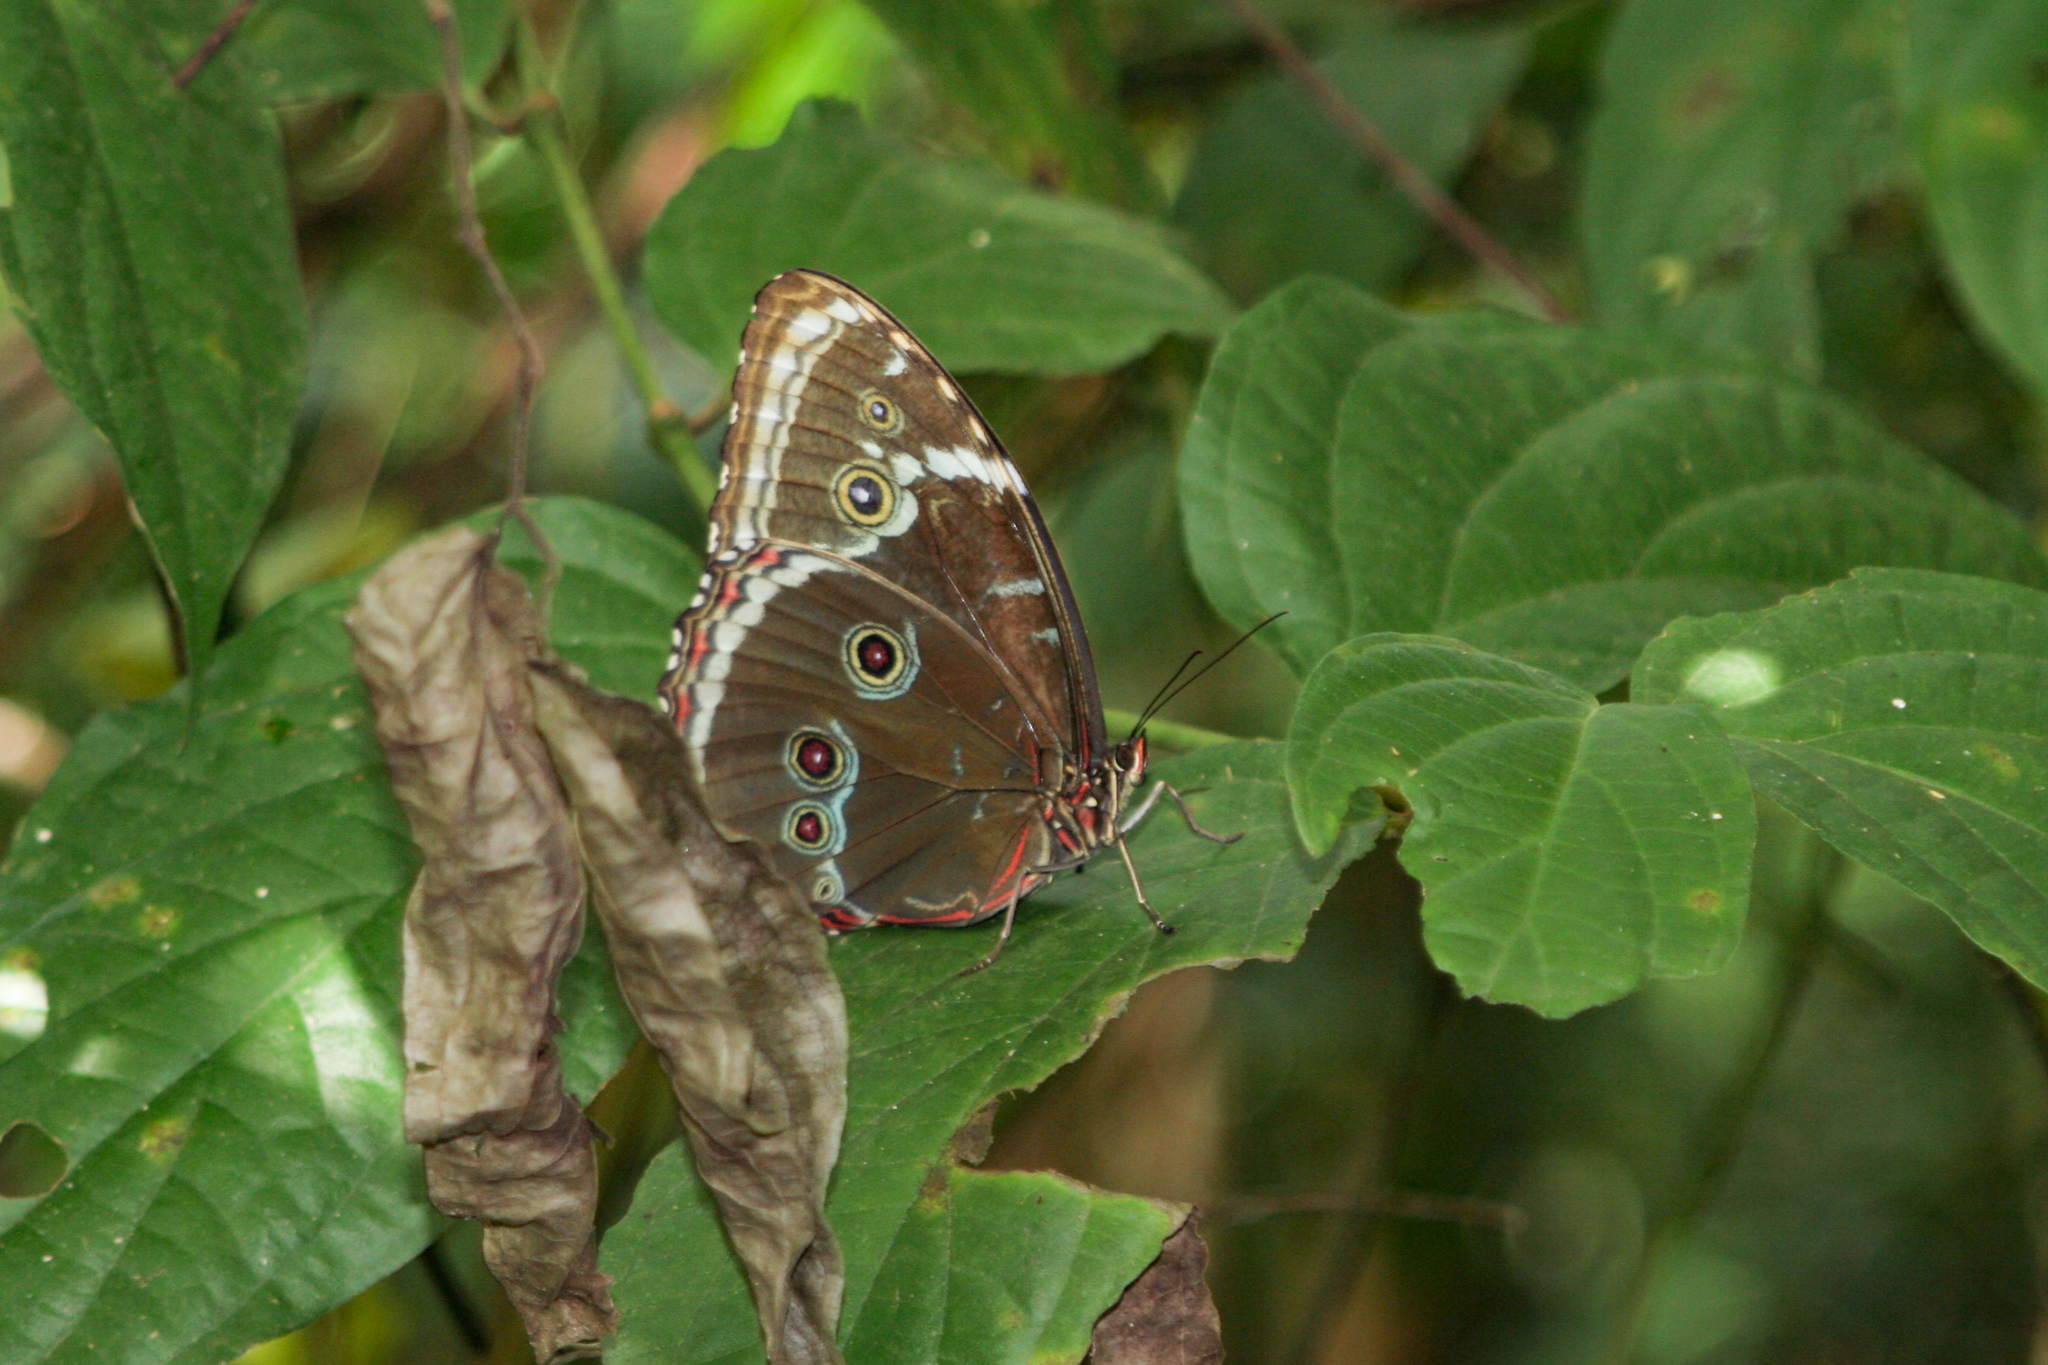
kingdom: Animalia
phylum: Arthropoda
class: Insecta
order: Lepidoptera
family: Nymphalidae
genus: Morpho
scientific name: Morpho helenor
